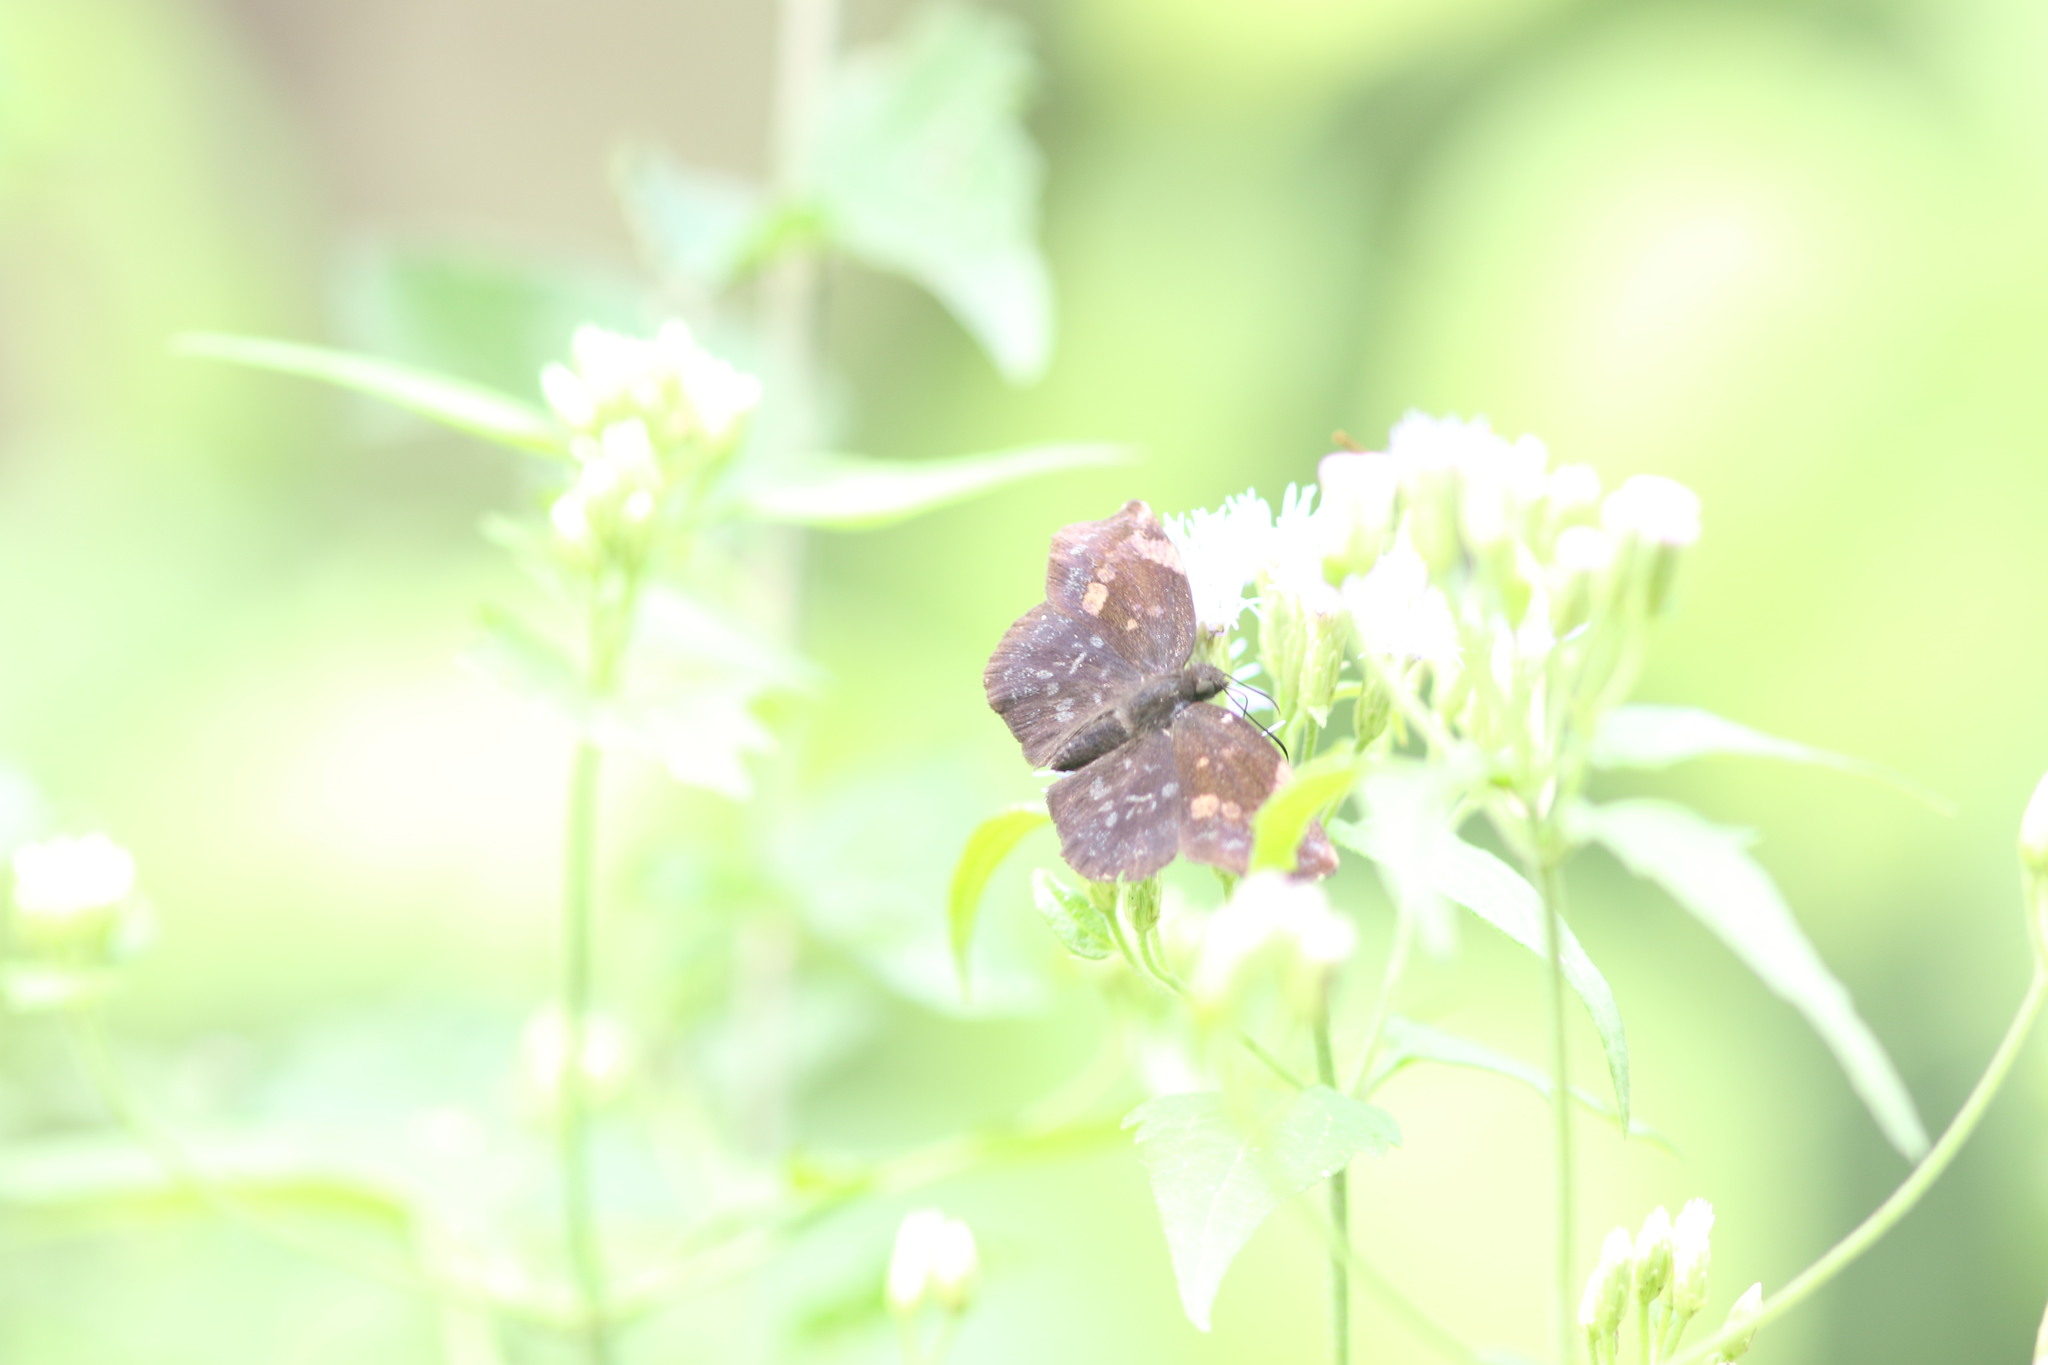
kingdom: Animalia
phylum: Arthropoda
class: Insecta
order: Lepidoptera
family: Hesperiidae
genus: Achlyodes
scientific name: Achlyodes thraso
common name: Sickle-winged skipper
